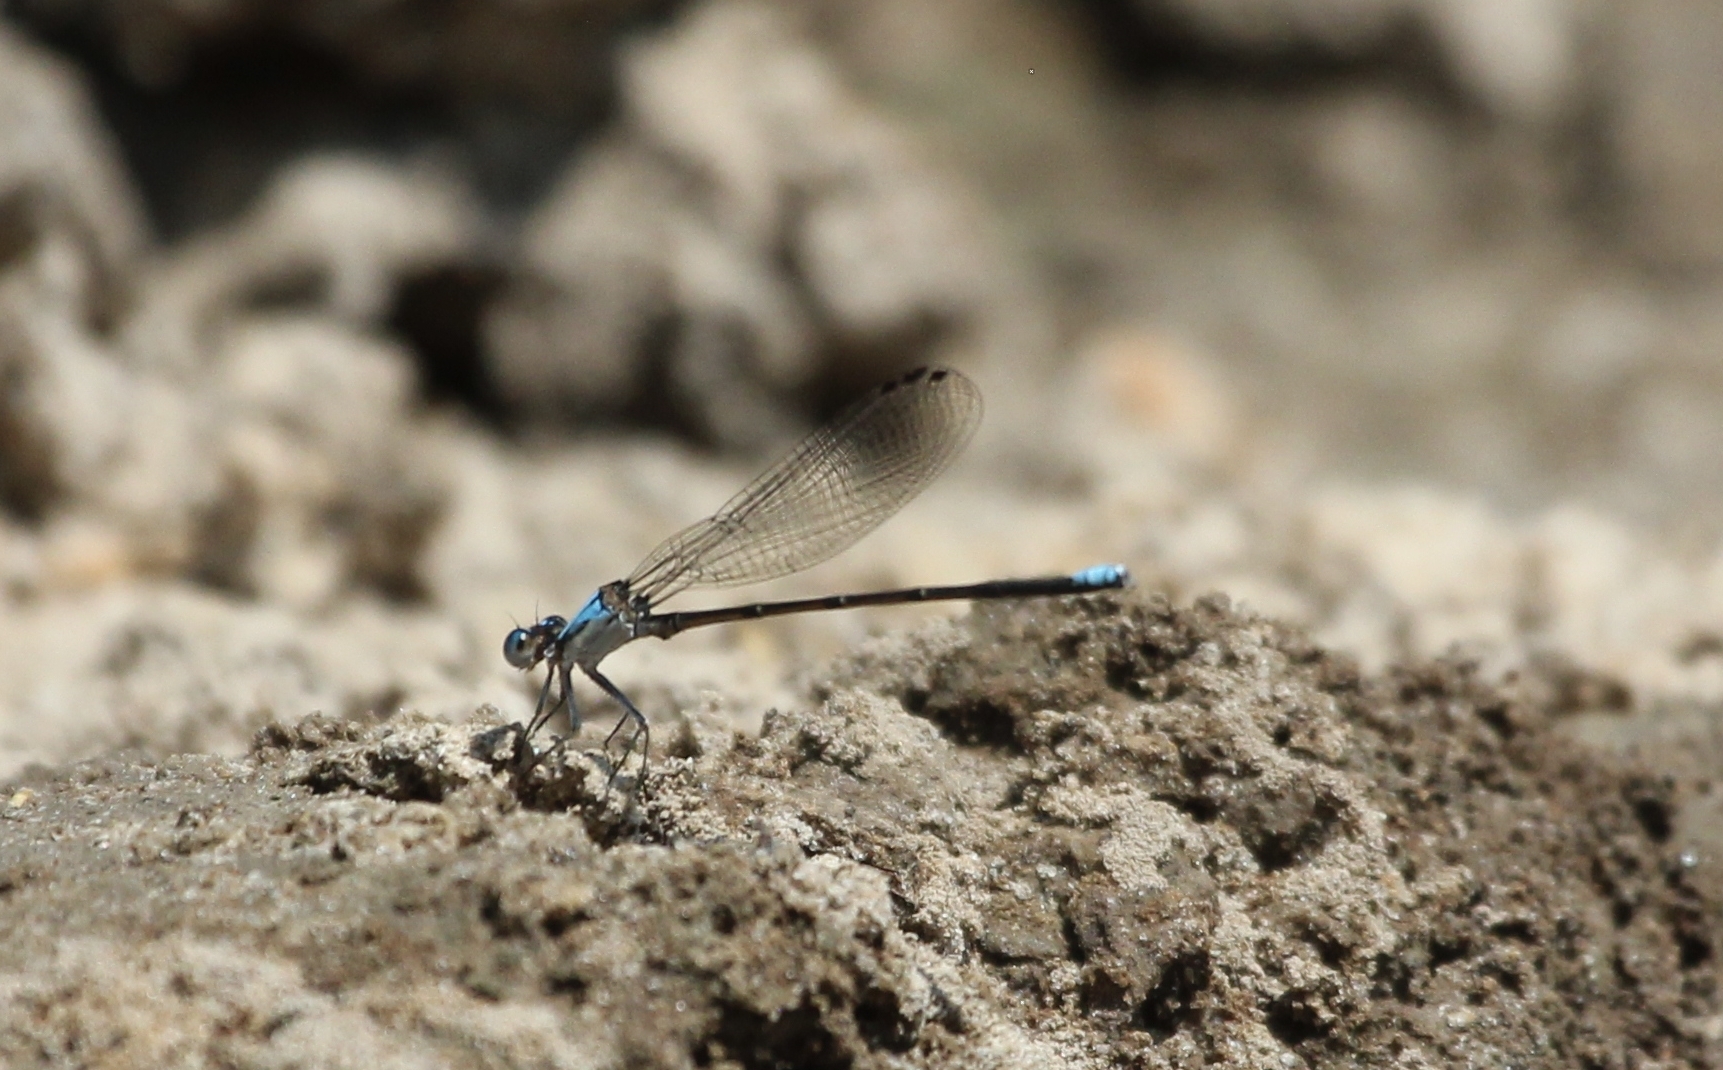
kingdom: Animalia
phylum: Arthropoda
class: Insecta
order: Odonata
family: Coenagrionidae
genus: Argia
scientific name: Argia apicalis
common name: Blue-fronted dancer
